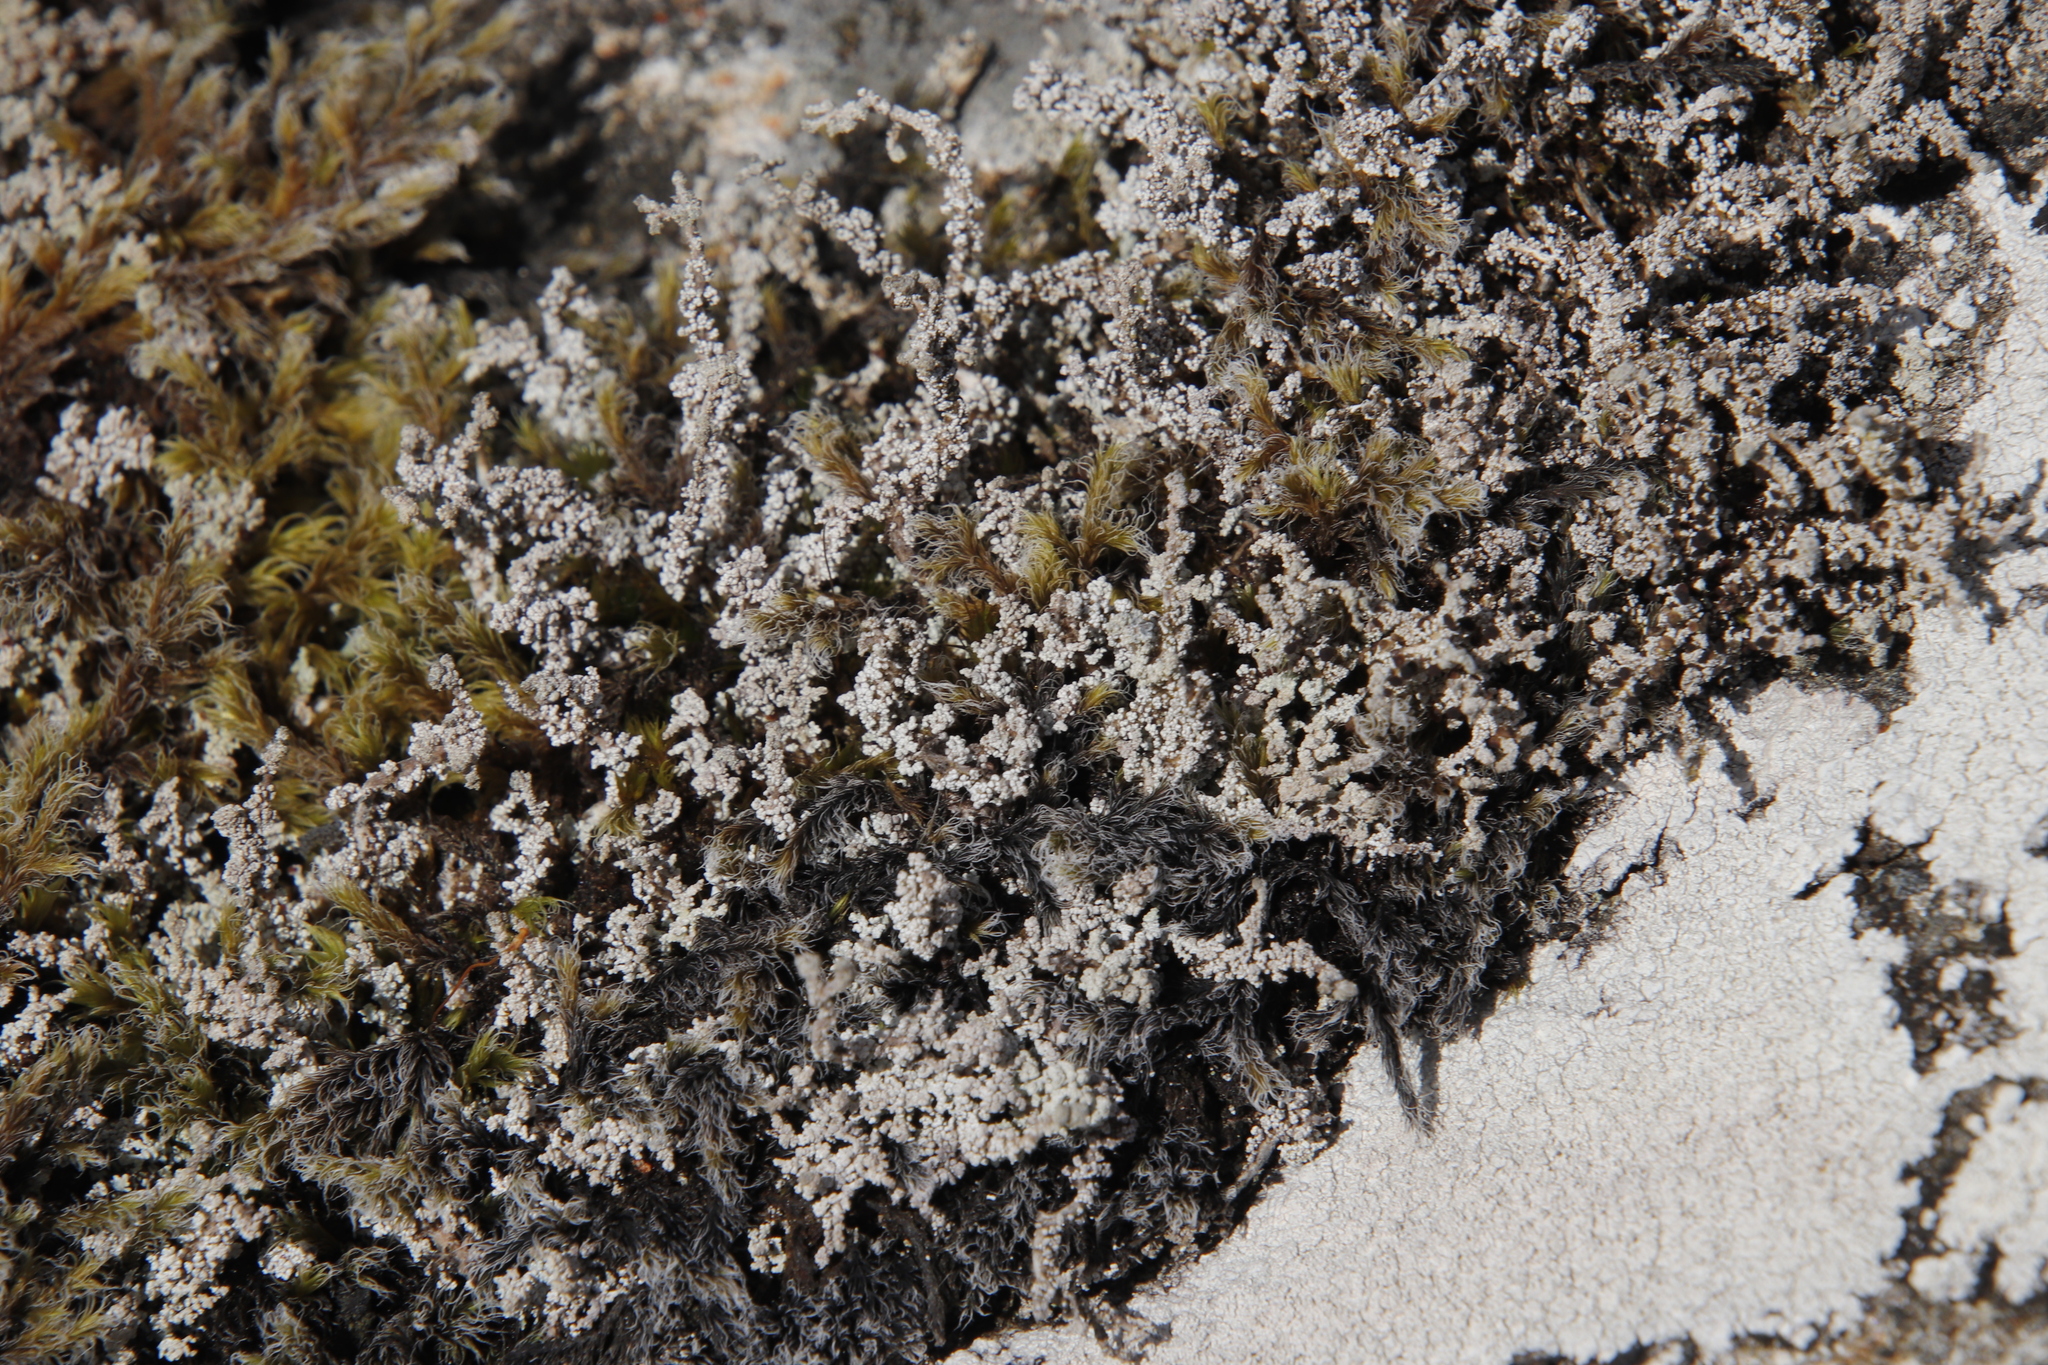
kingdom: Plantae
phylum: Bryophyta
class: Bryopsida
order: Grimmiales
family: Grimmiaceae
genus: Racomitrium
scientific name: Racomitrium lanuginosum
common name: Hoary rock moss
